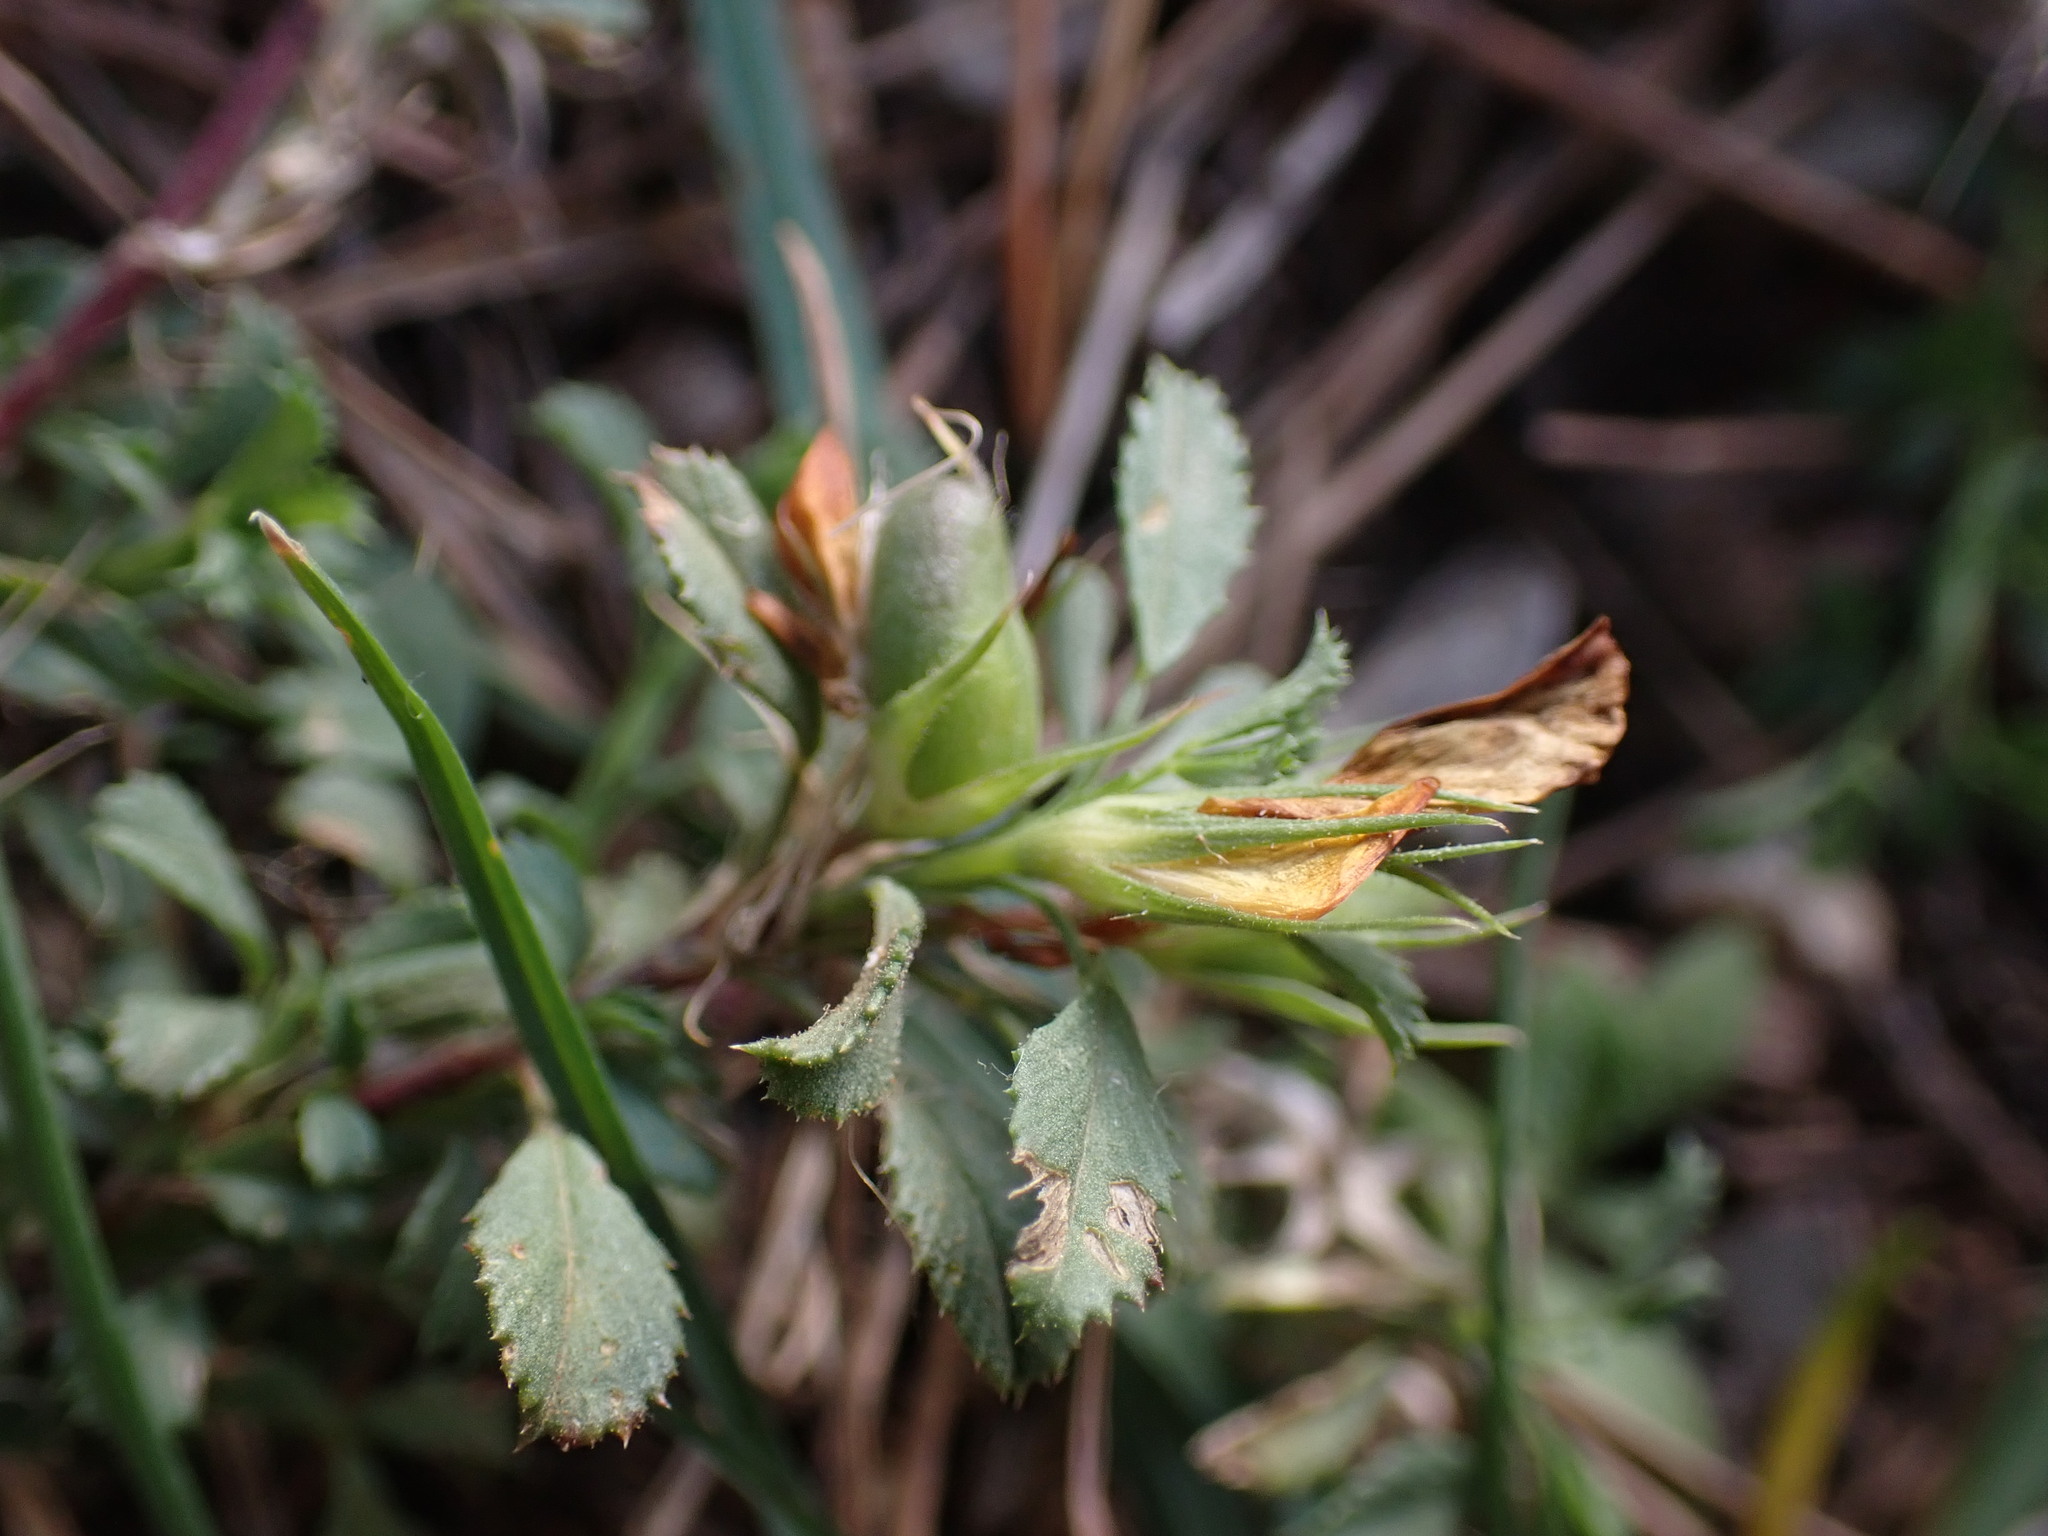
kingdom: Plantae
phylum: Tracheophyta
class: Magnoliopsida
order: Fabales
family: Fabaceae
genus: Ononis
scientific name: Ononis minutissima
